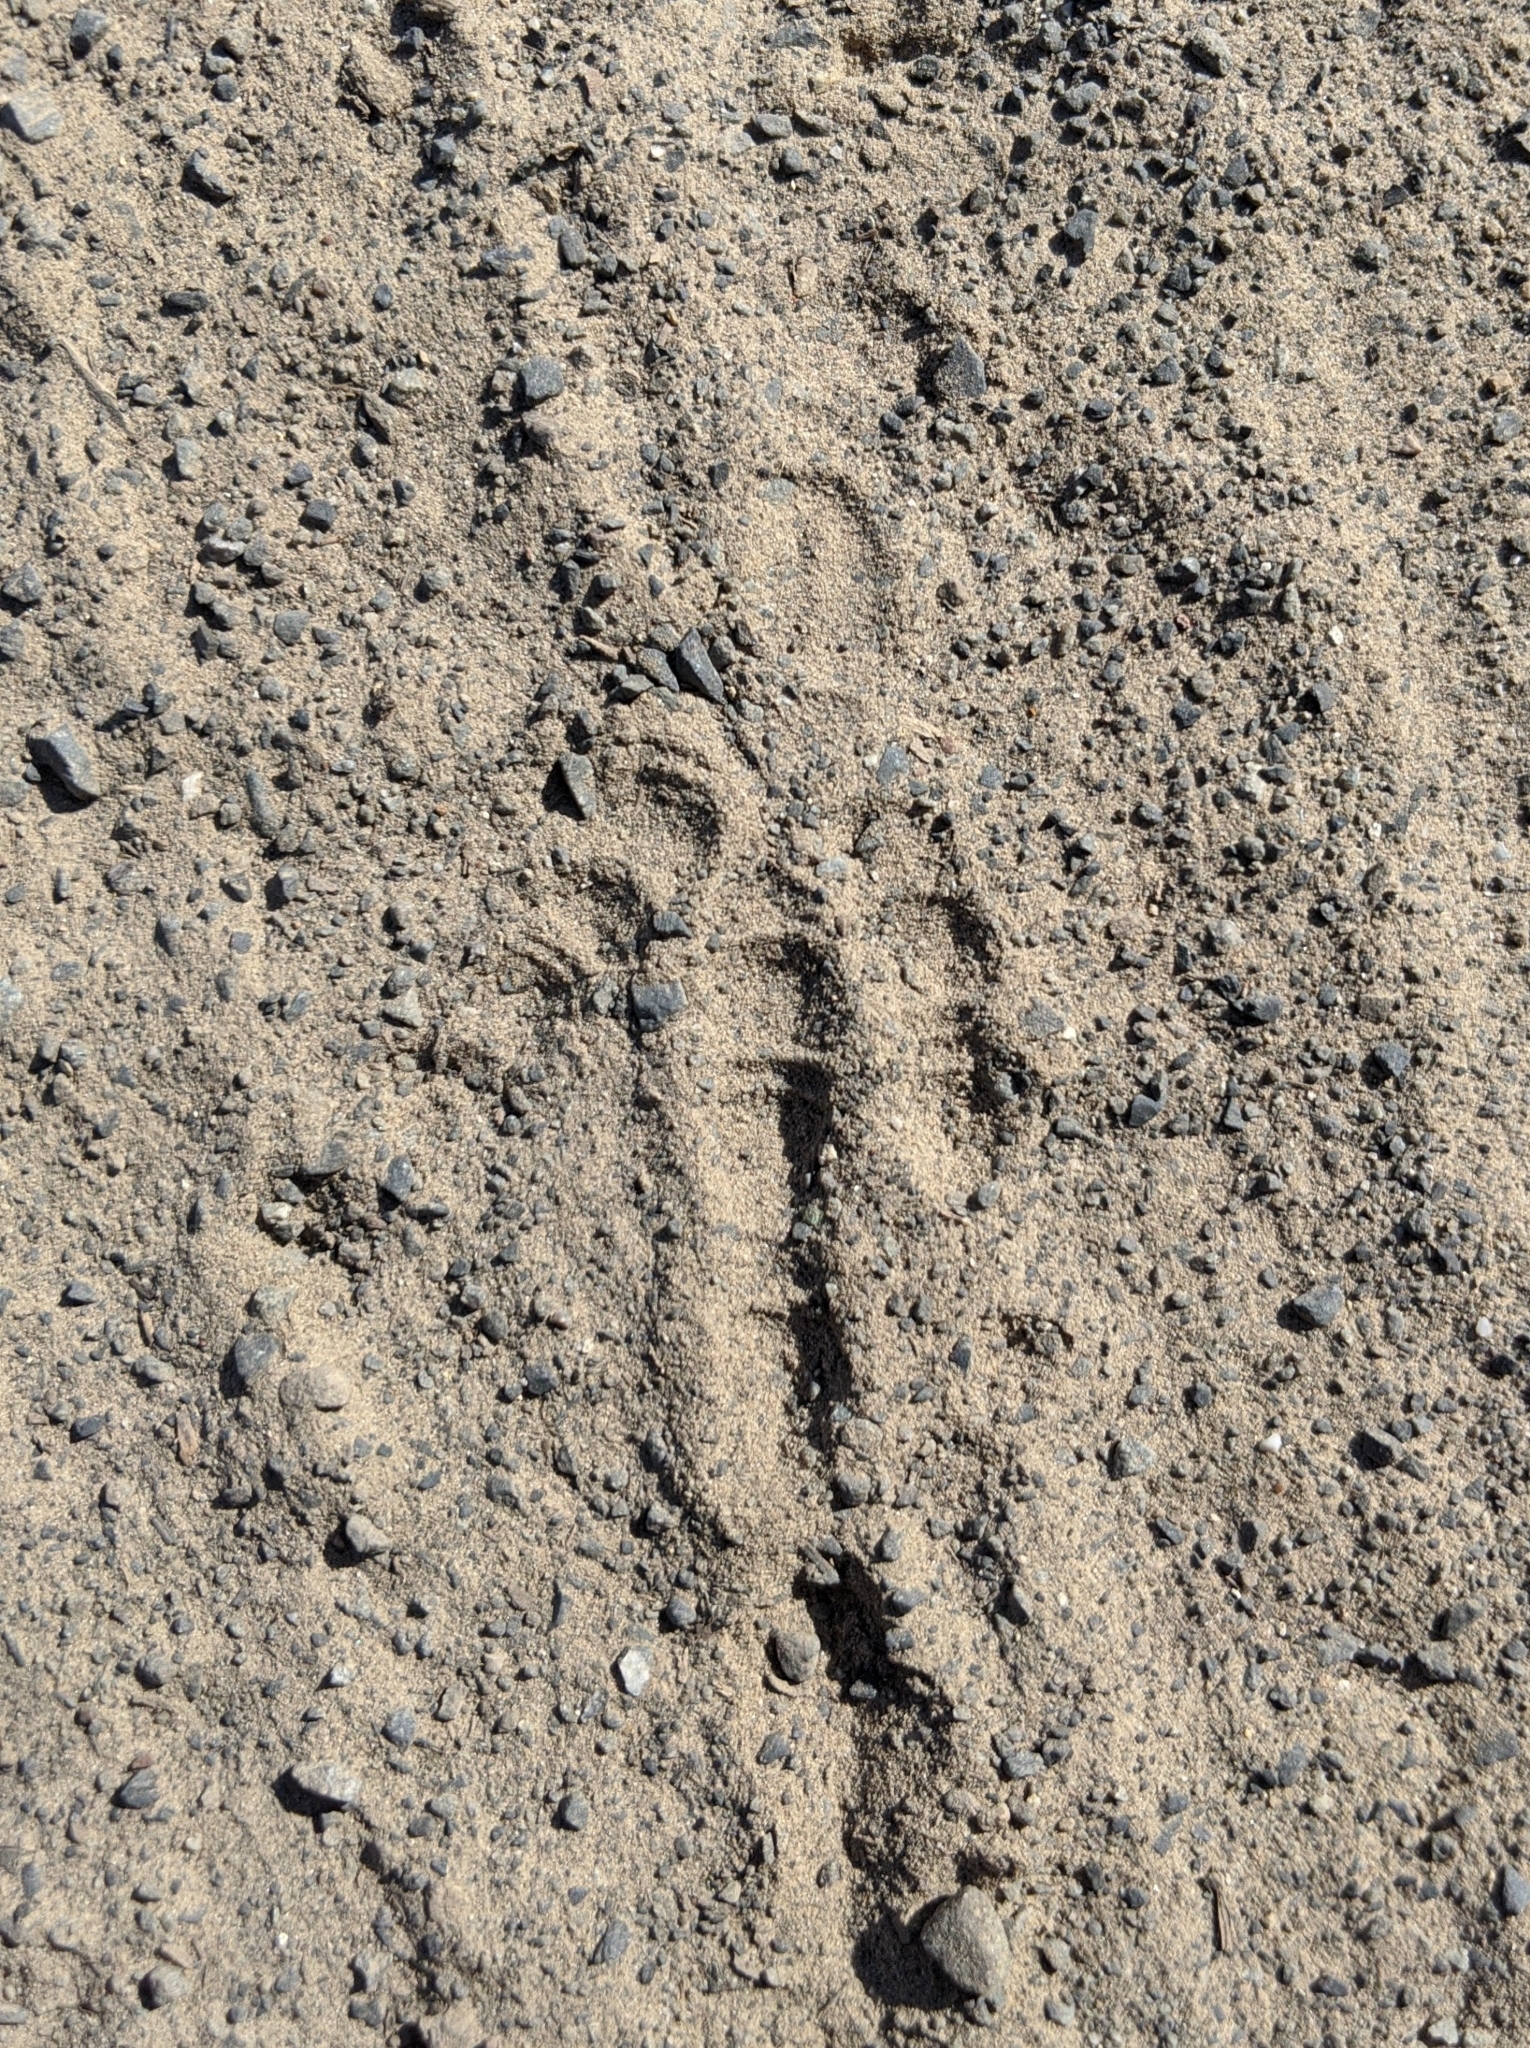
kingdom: Animalia
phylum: Chordata
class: Aves
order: Galliformes
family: Phasianidae
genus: Meleagris
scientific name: Meleagris gallopavo
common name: Wild turkey
